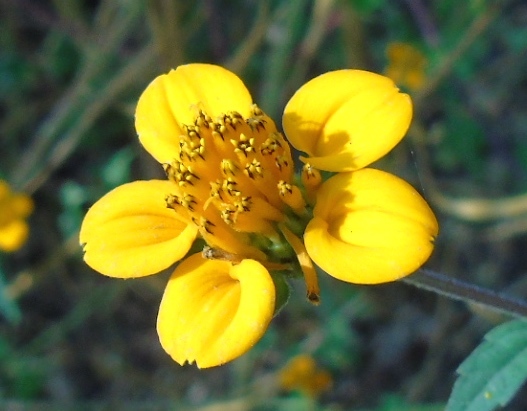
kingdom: Plantae
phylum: Tracheophyta
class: Magnoliopsida
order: Asterales
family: Asteraceae
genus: Sclerocarpus
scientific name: Sclerocarpus divaricatus
